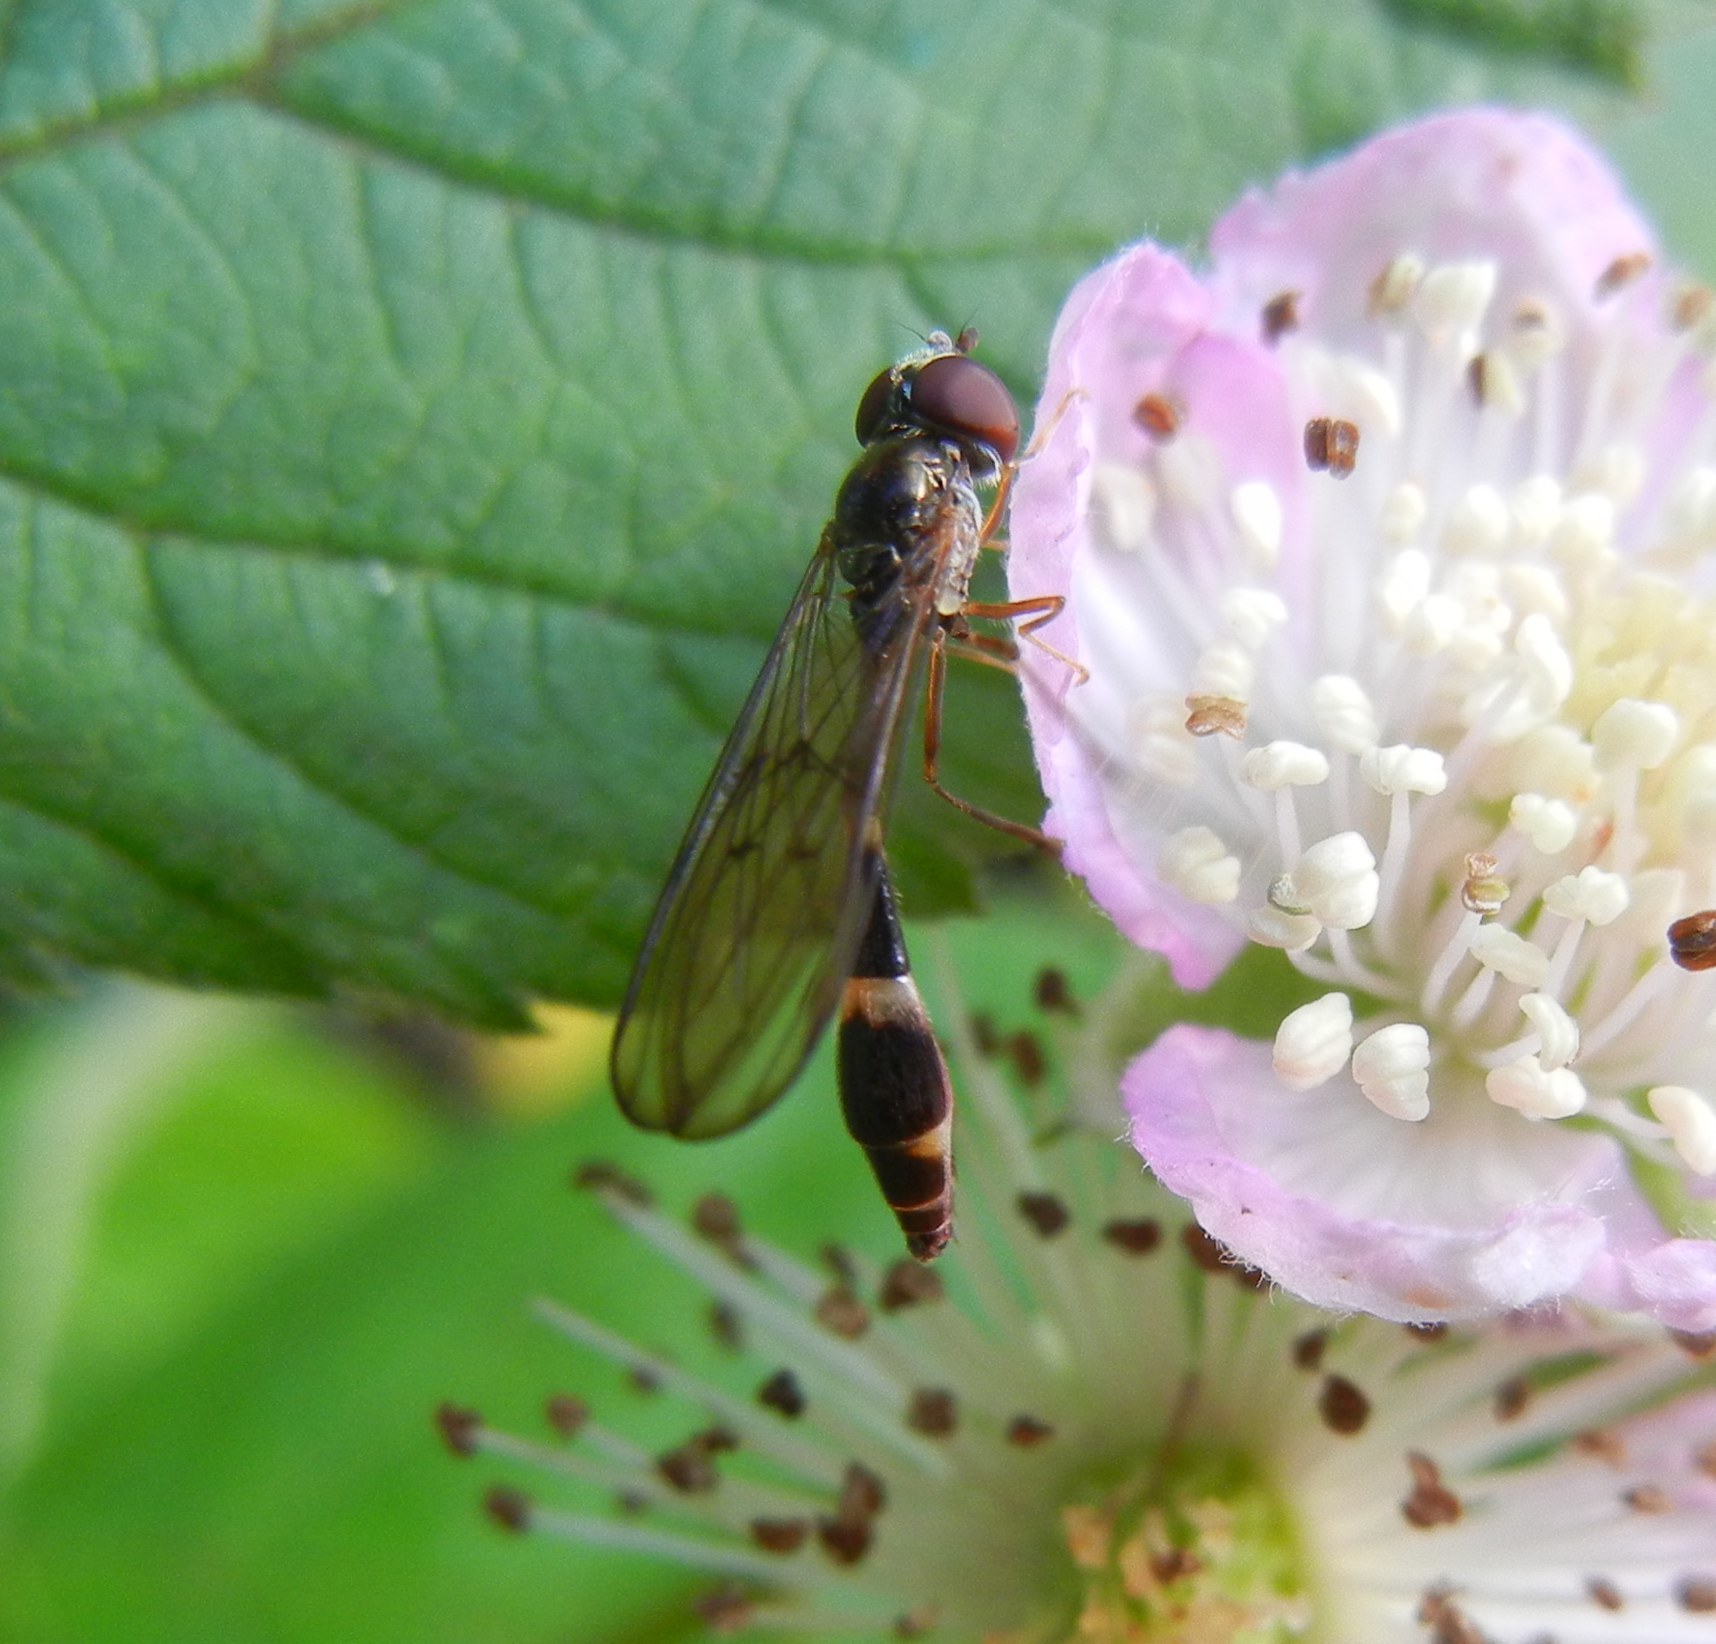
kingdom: Animalia
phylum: Arthropoda
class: Insecta
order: Diptera
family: Syrphidae
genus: Baccha
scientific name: Baccha elongata
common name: Common dainty
